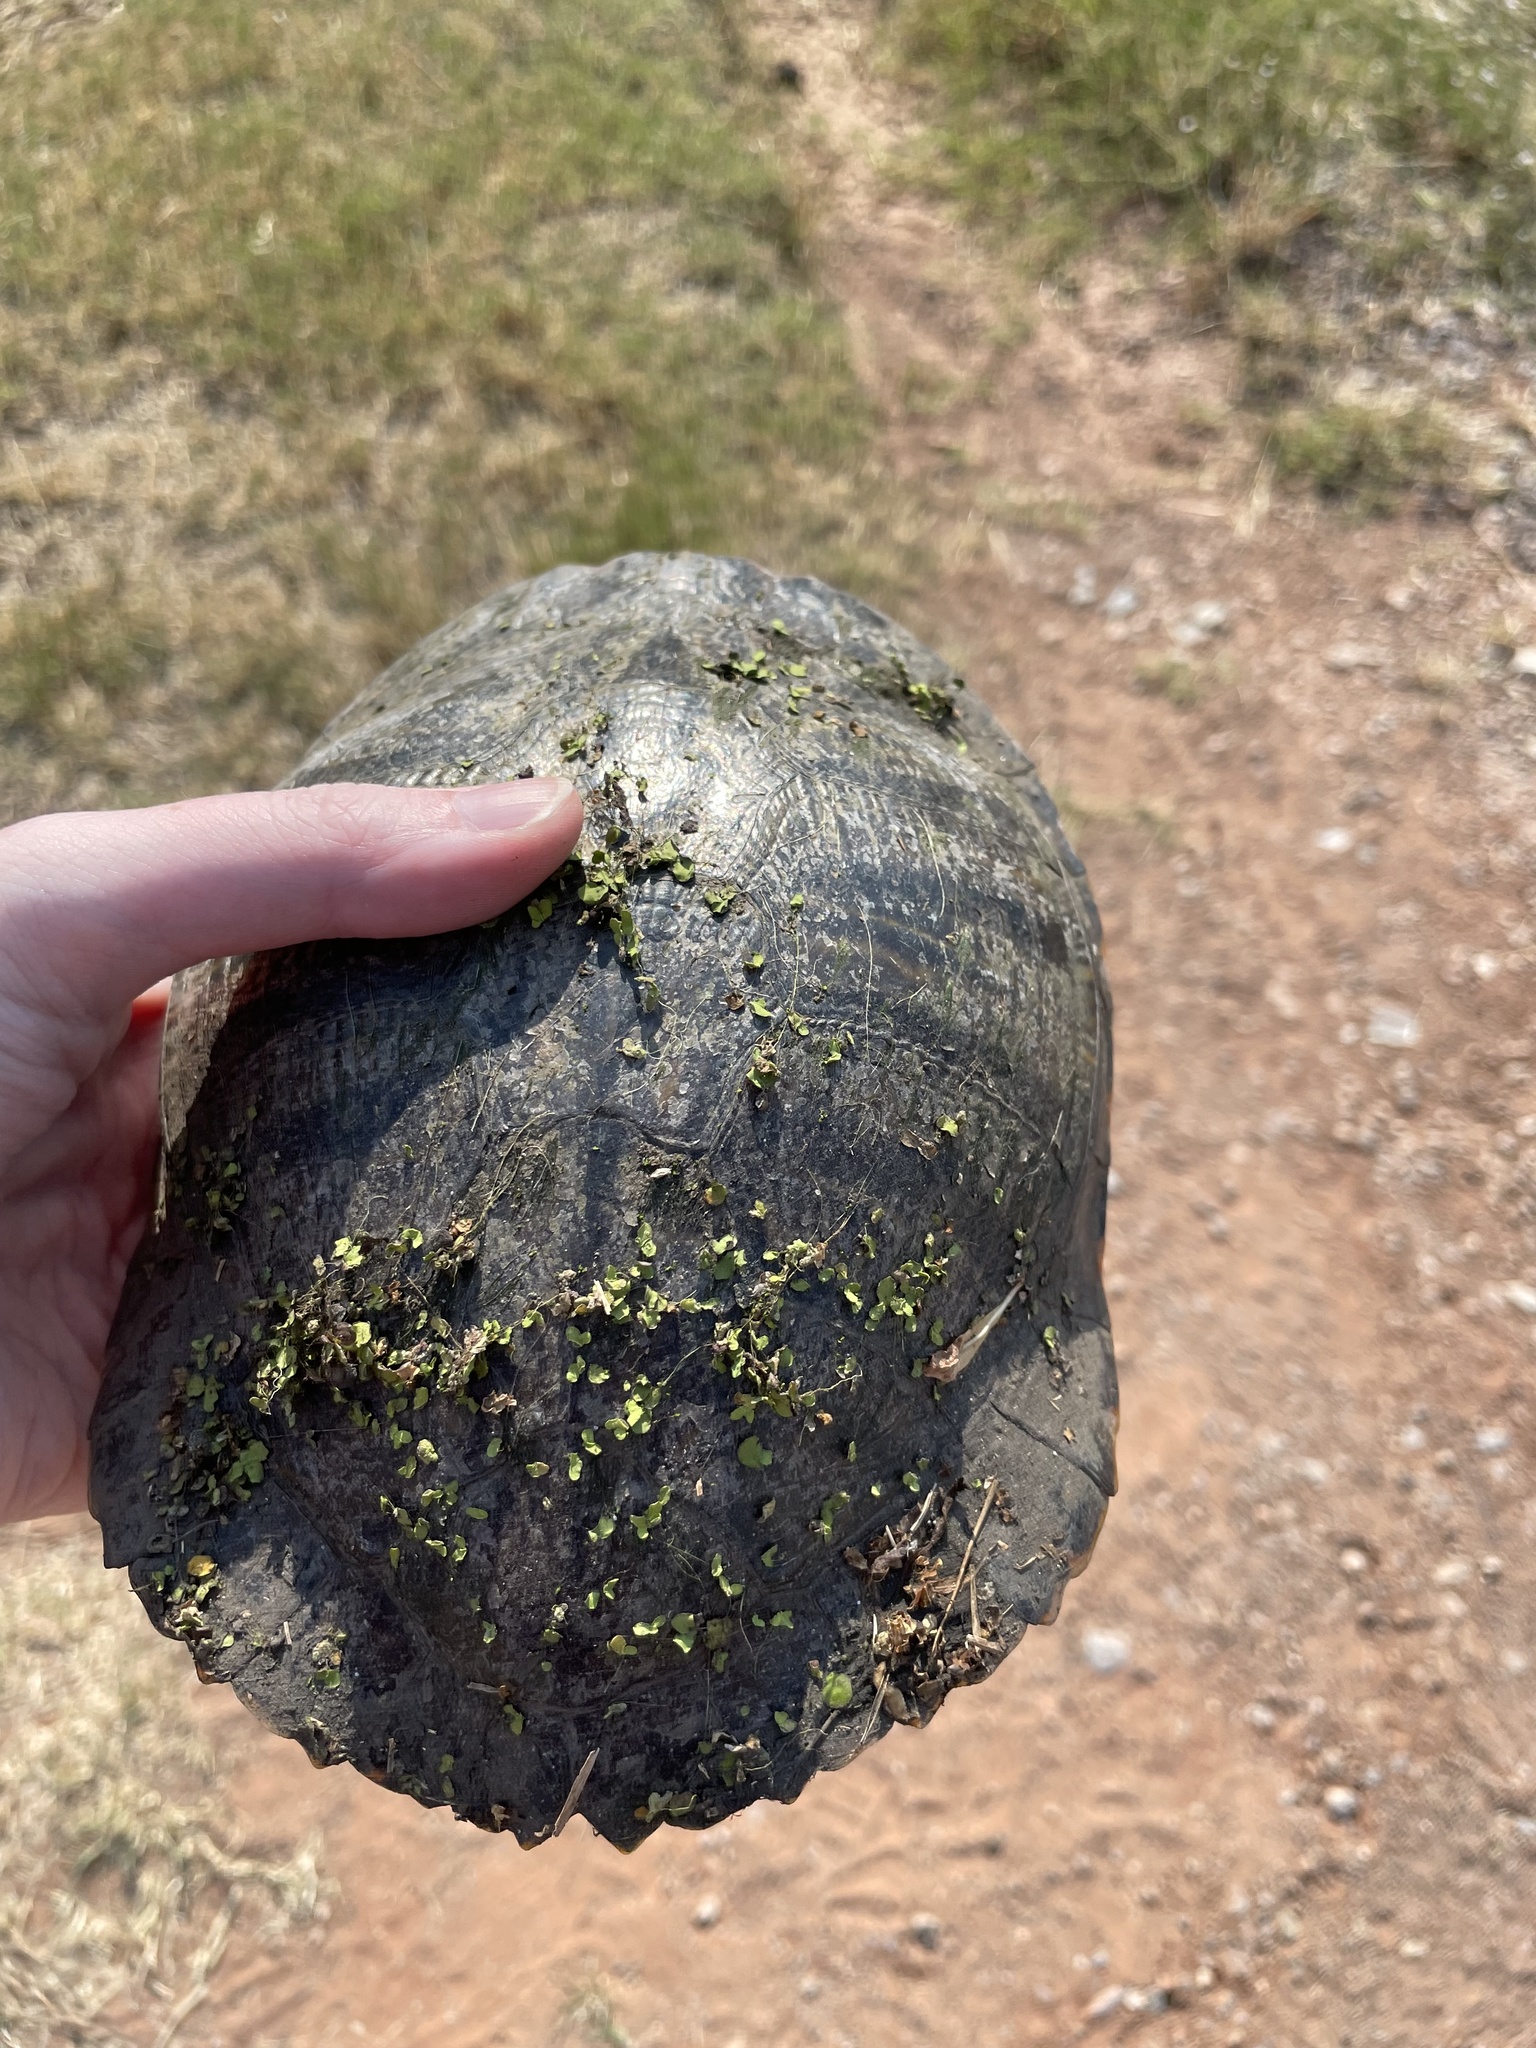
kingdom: Animalia
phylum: Chordata
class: Testudines
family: Emydidae
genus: Trachemys
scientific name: Trachemys scripta
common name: Slider
